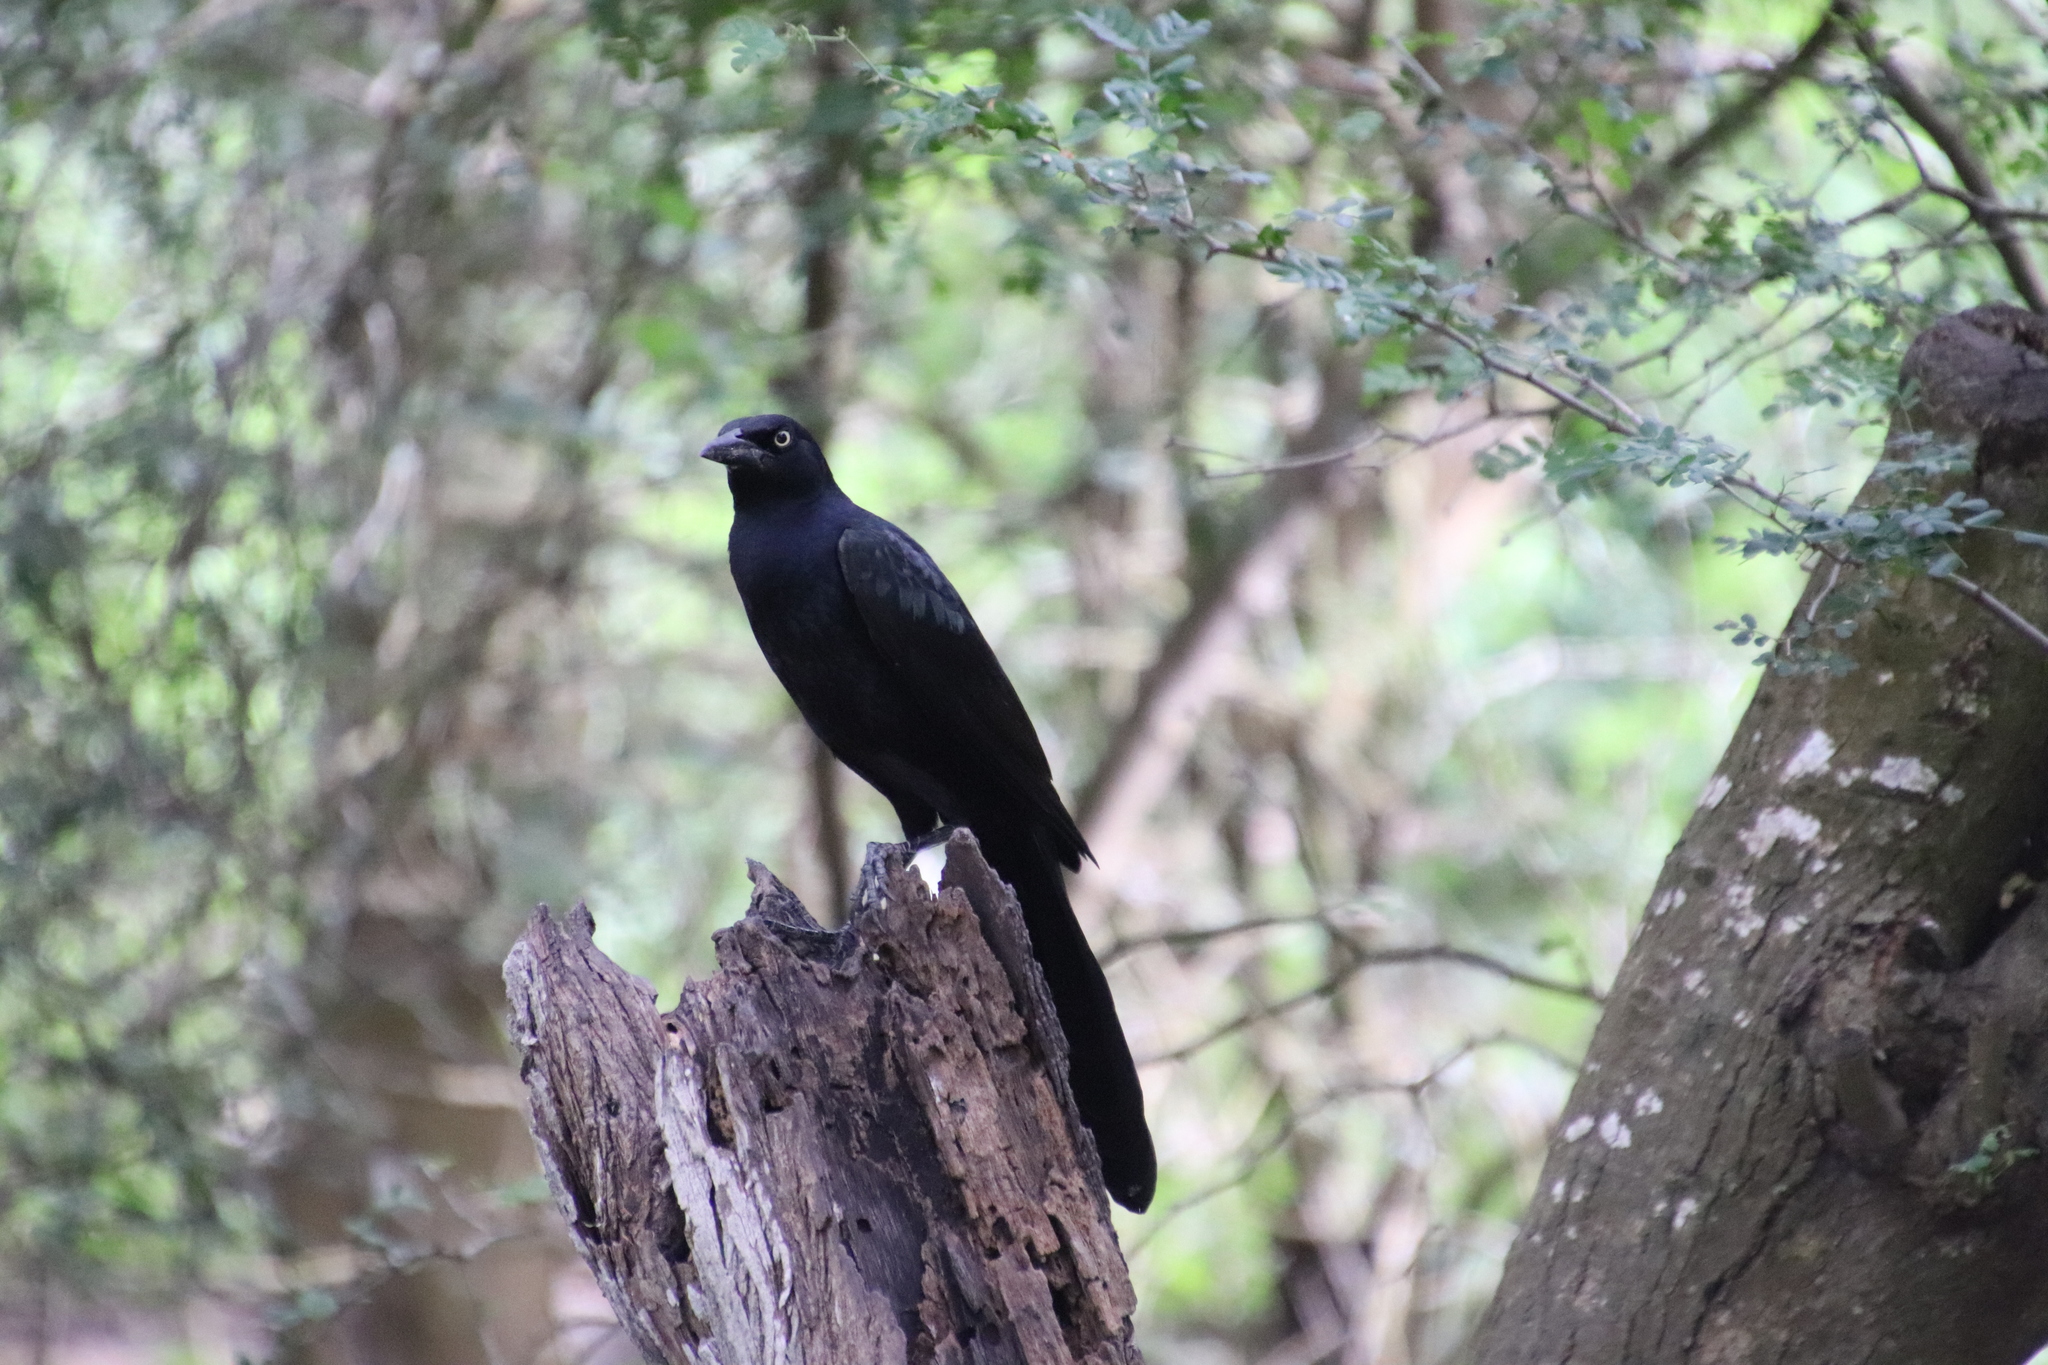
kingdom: Animalia
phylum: Chordata
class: Aves
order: Passeriformes
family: Icteridae
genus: Quiscalus
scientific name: Quiscalus mexicanus
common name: Great-tailed grackle
